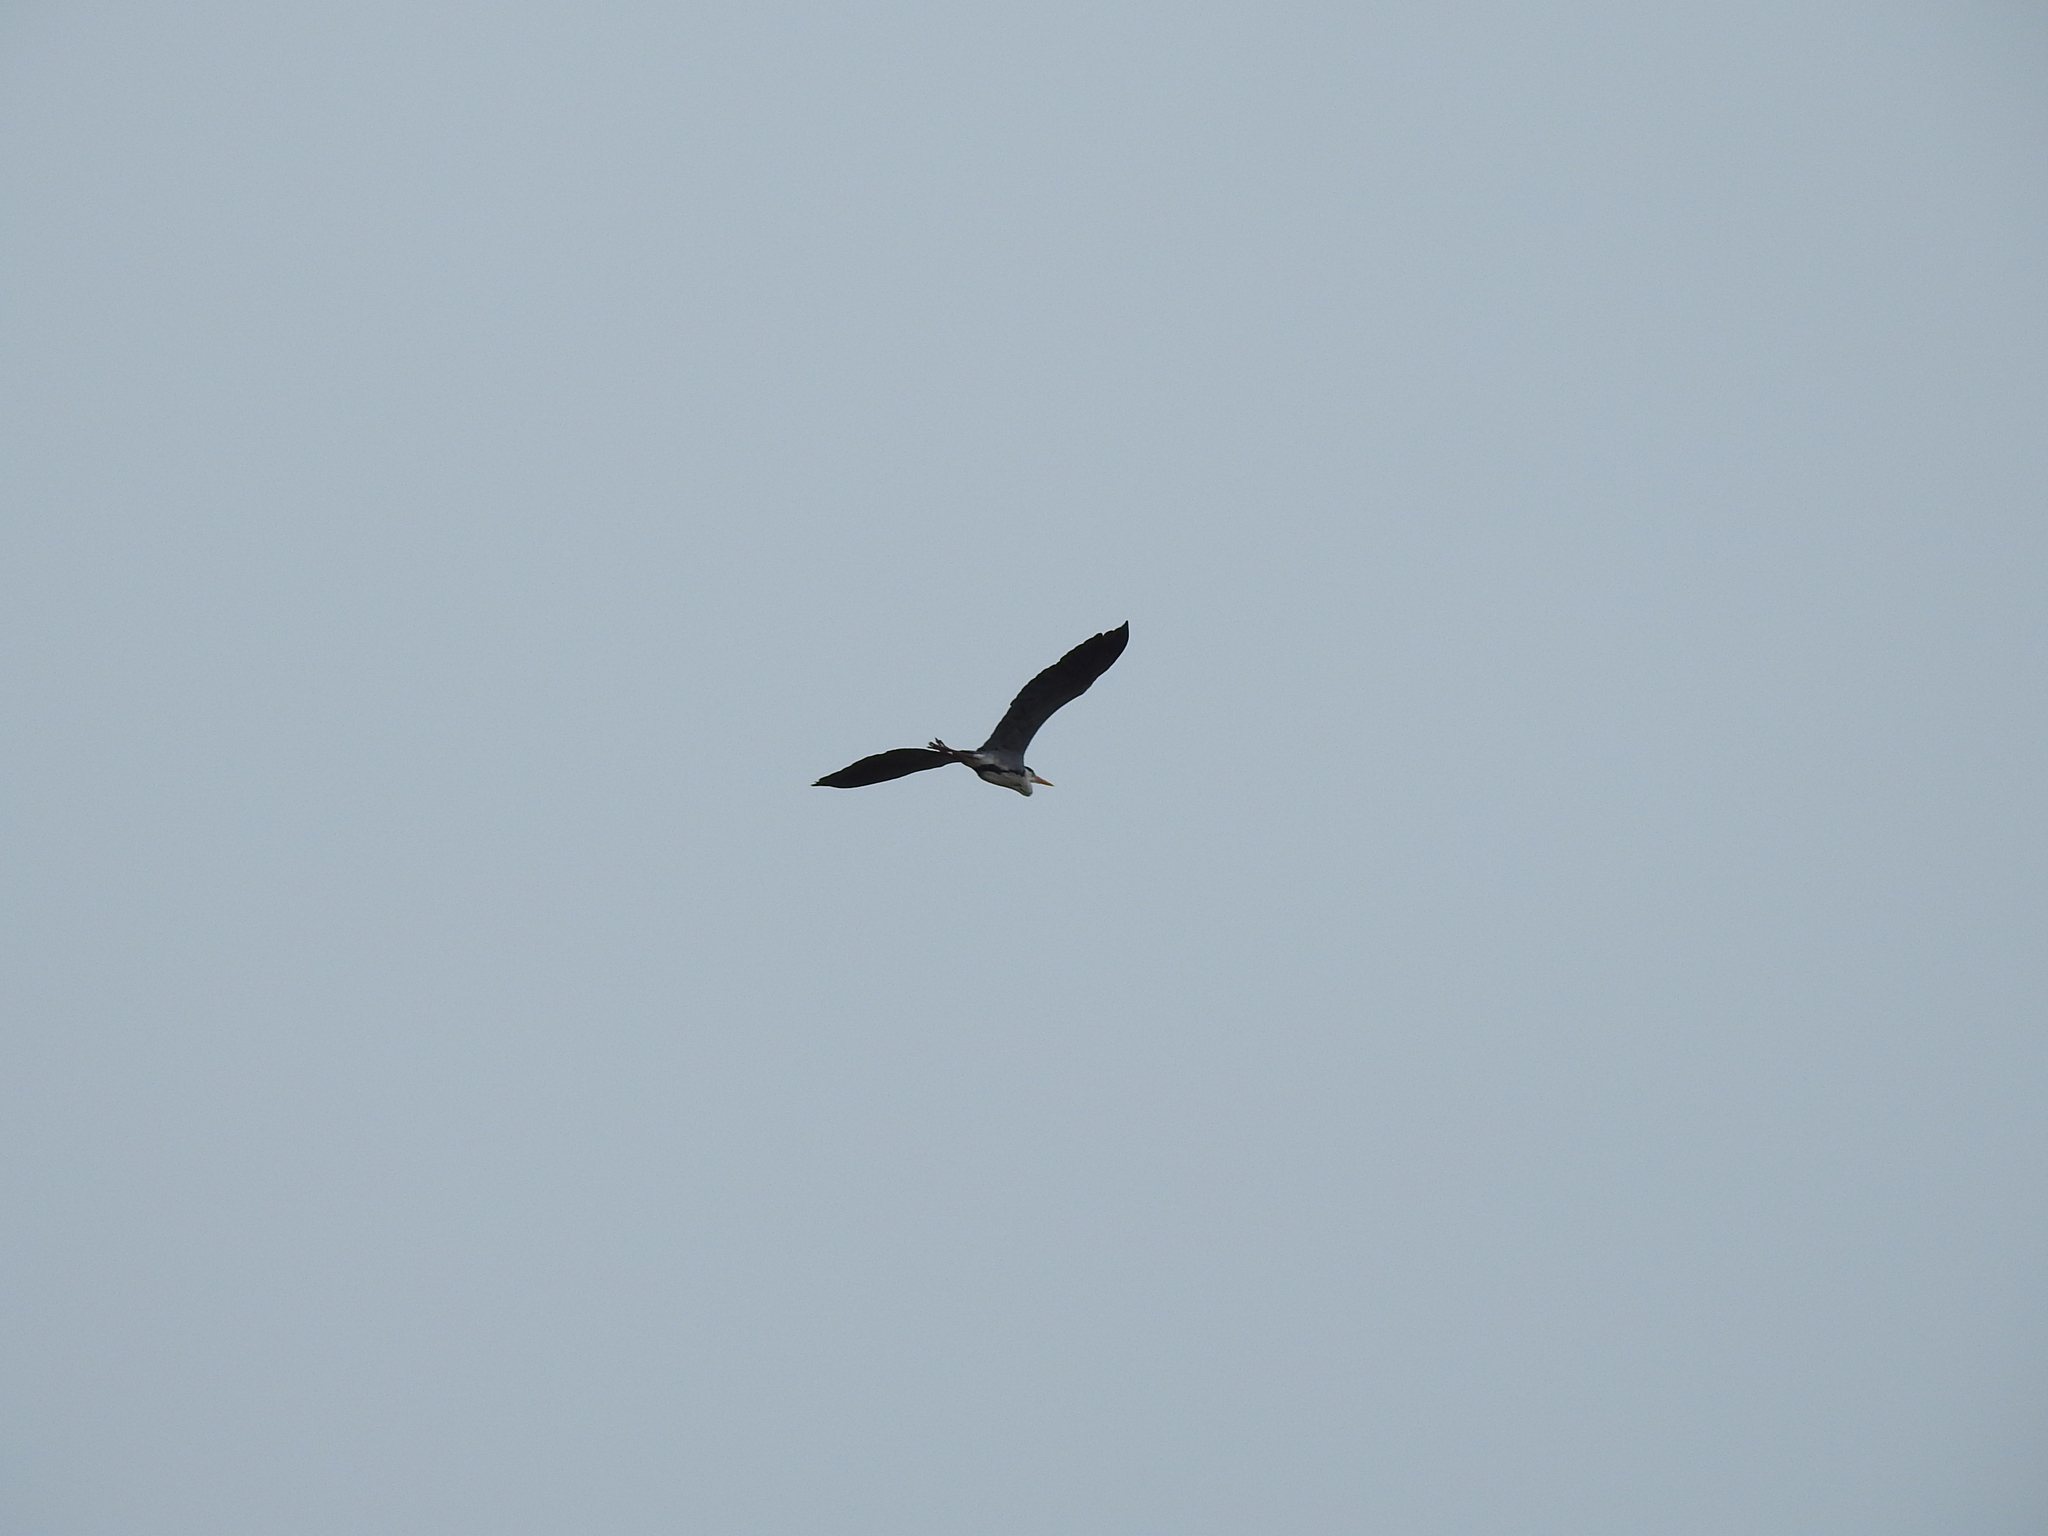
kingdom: Animalia
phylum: Chordata
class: Aves
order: Pelecaniformes
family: Ardeidae
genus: Ardea
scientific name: Ardea cinerea
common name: Grey heron
